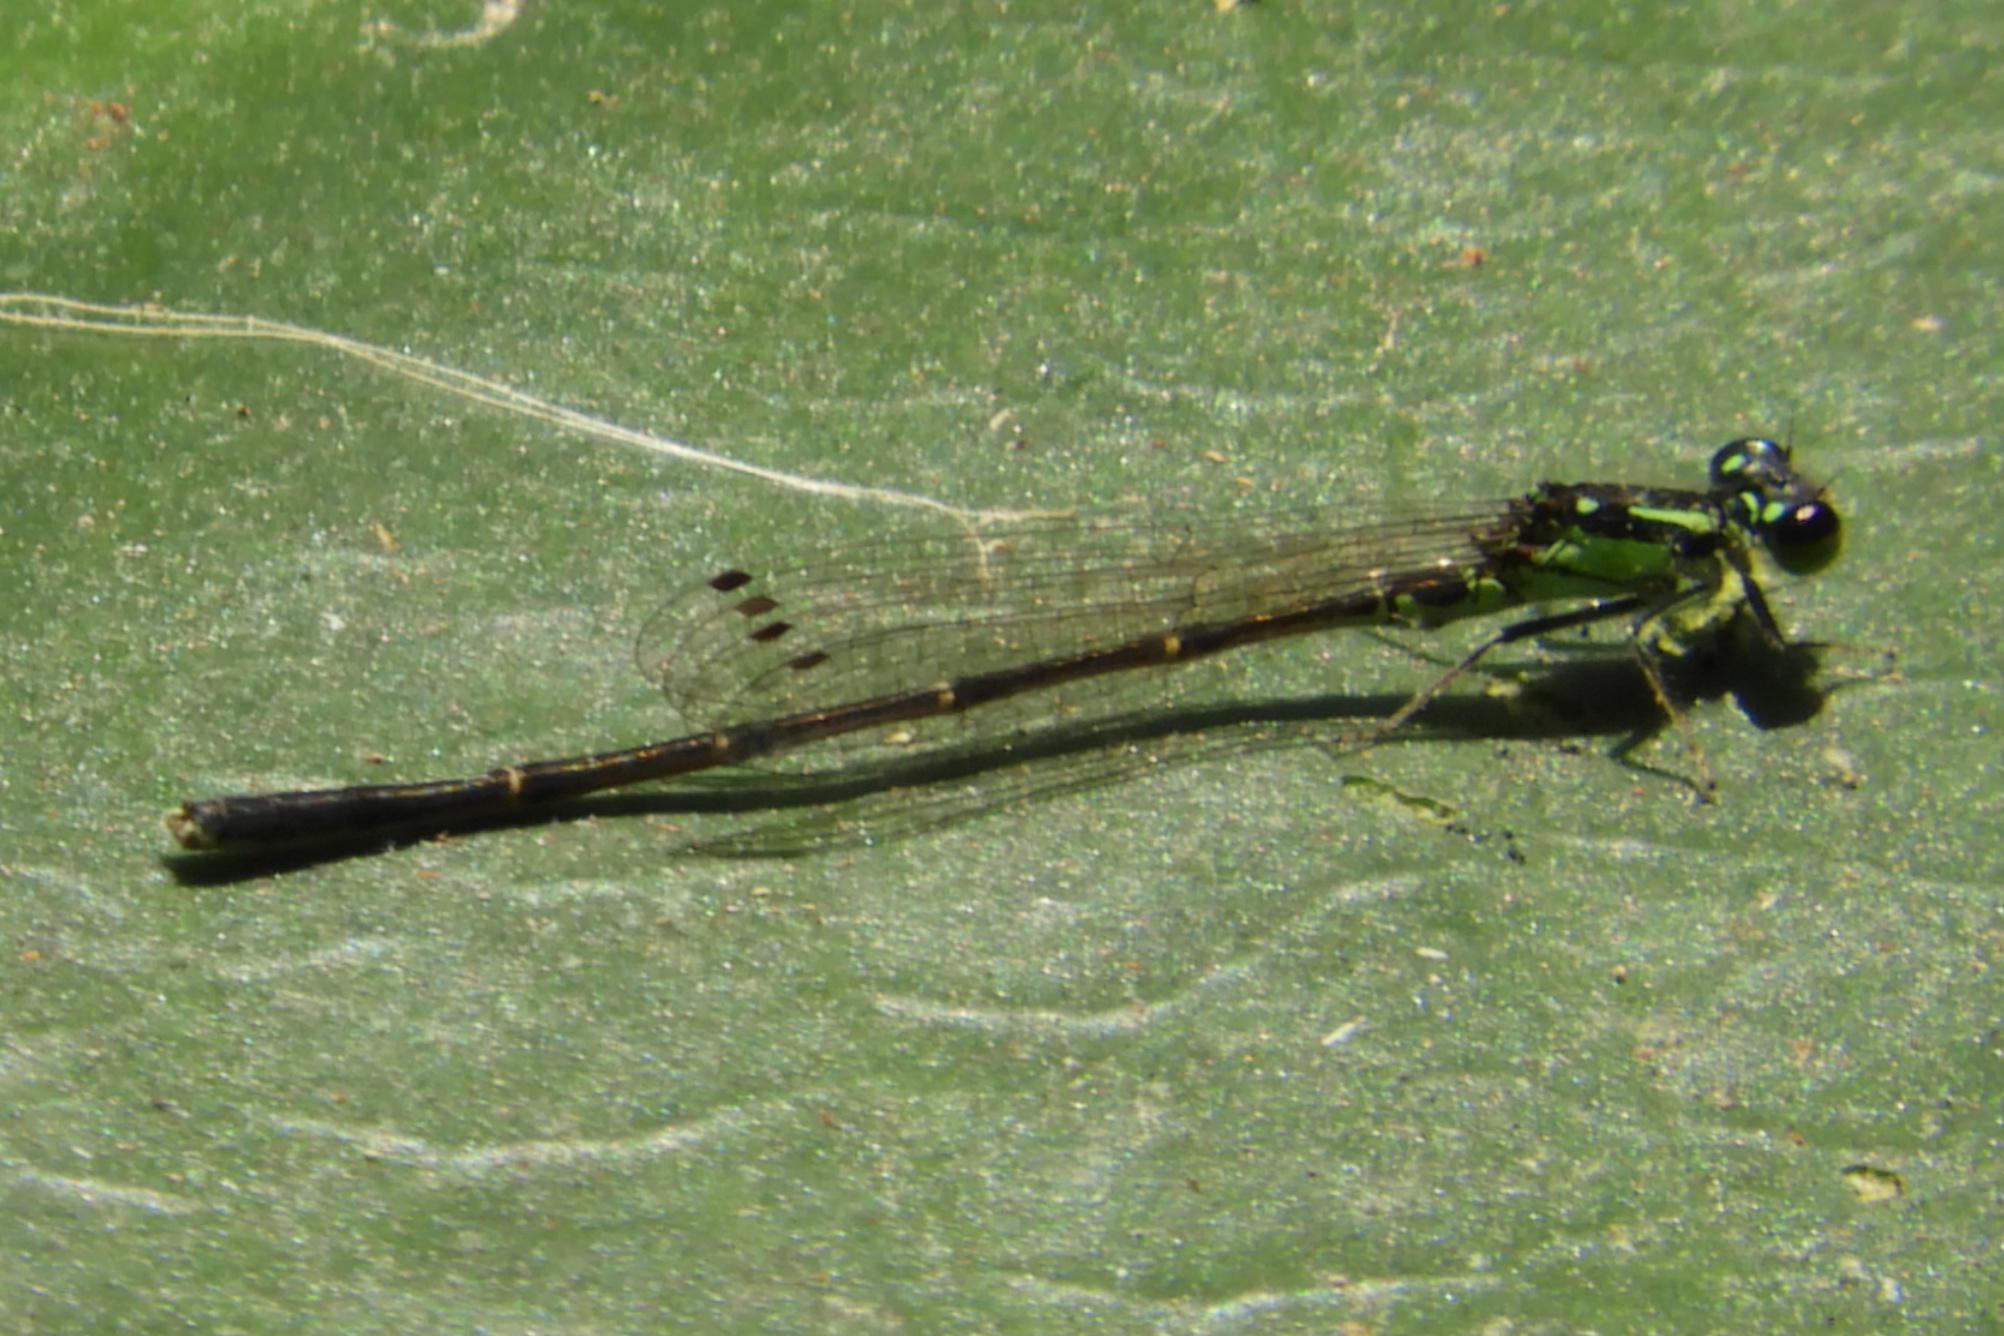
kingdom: Animalia
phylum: Arthropoda
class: Insecta
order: Odonata
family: Coenagrionidae
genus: Ischnura
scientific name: Ischnura posita
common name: Fragile forktail
